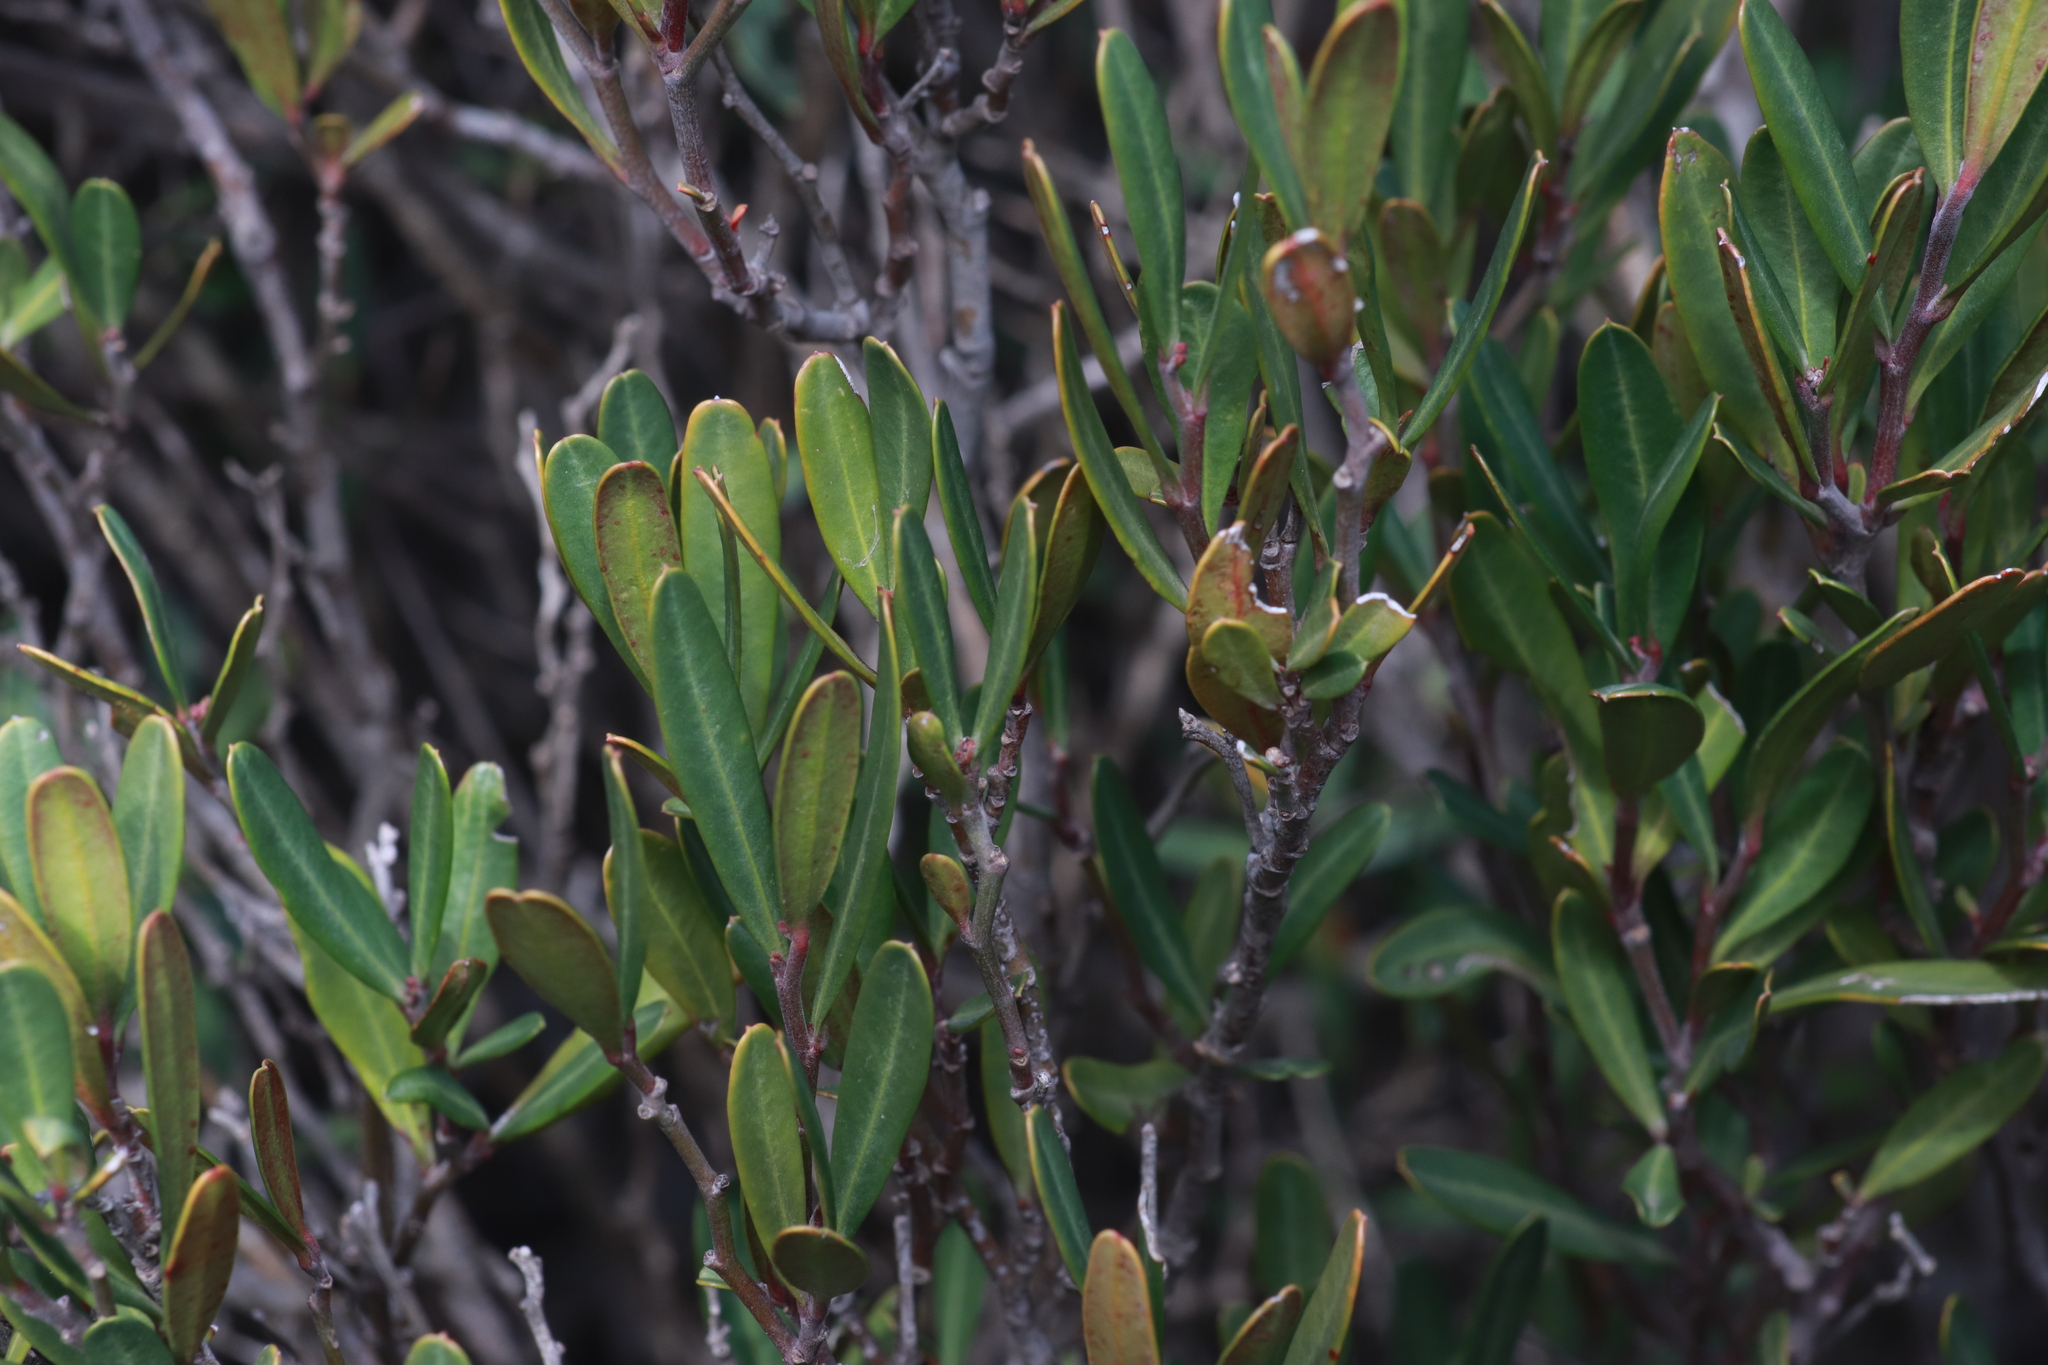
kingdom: Plantae
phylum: Tracheophyta
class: Magnoliopsida
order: Sapindales
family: Rutaceae
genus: Cneorum
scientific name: Cneorum tricoccon
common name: Spurge olive
